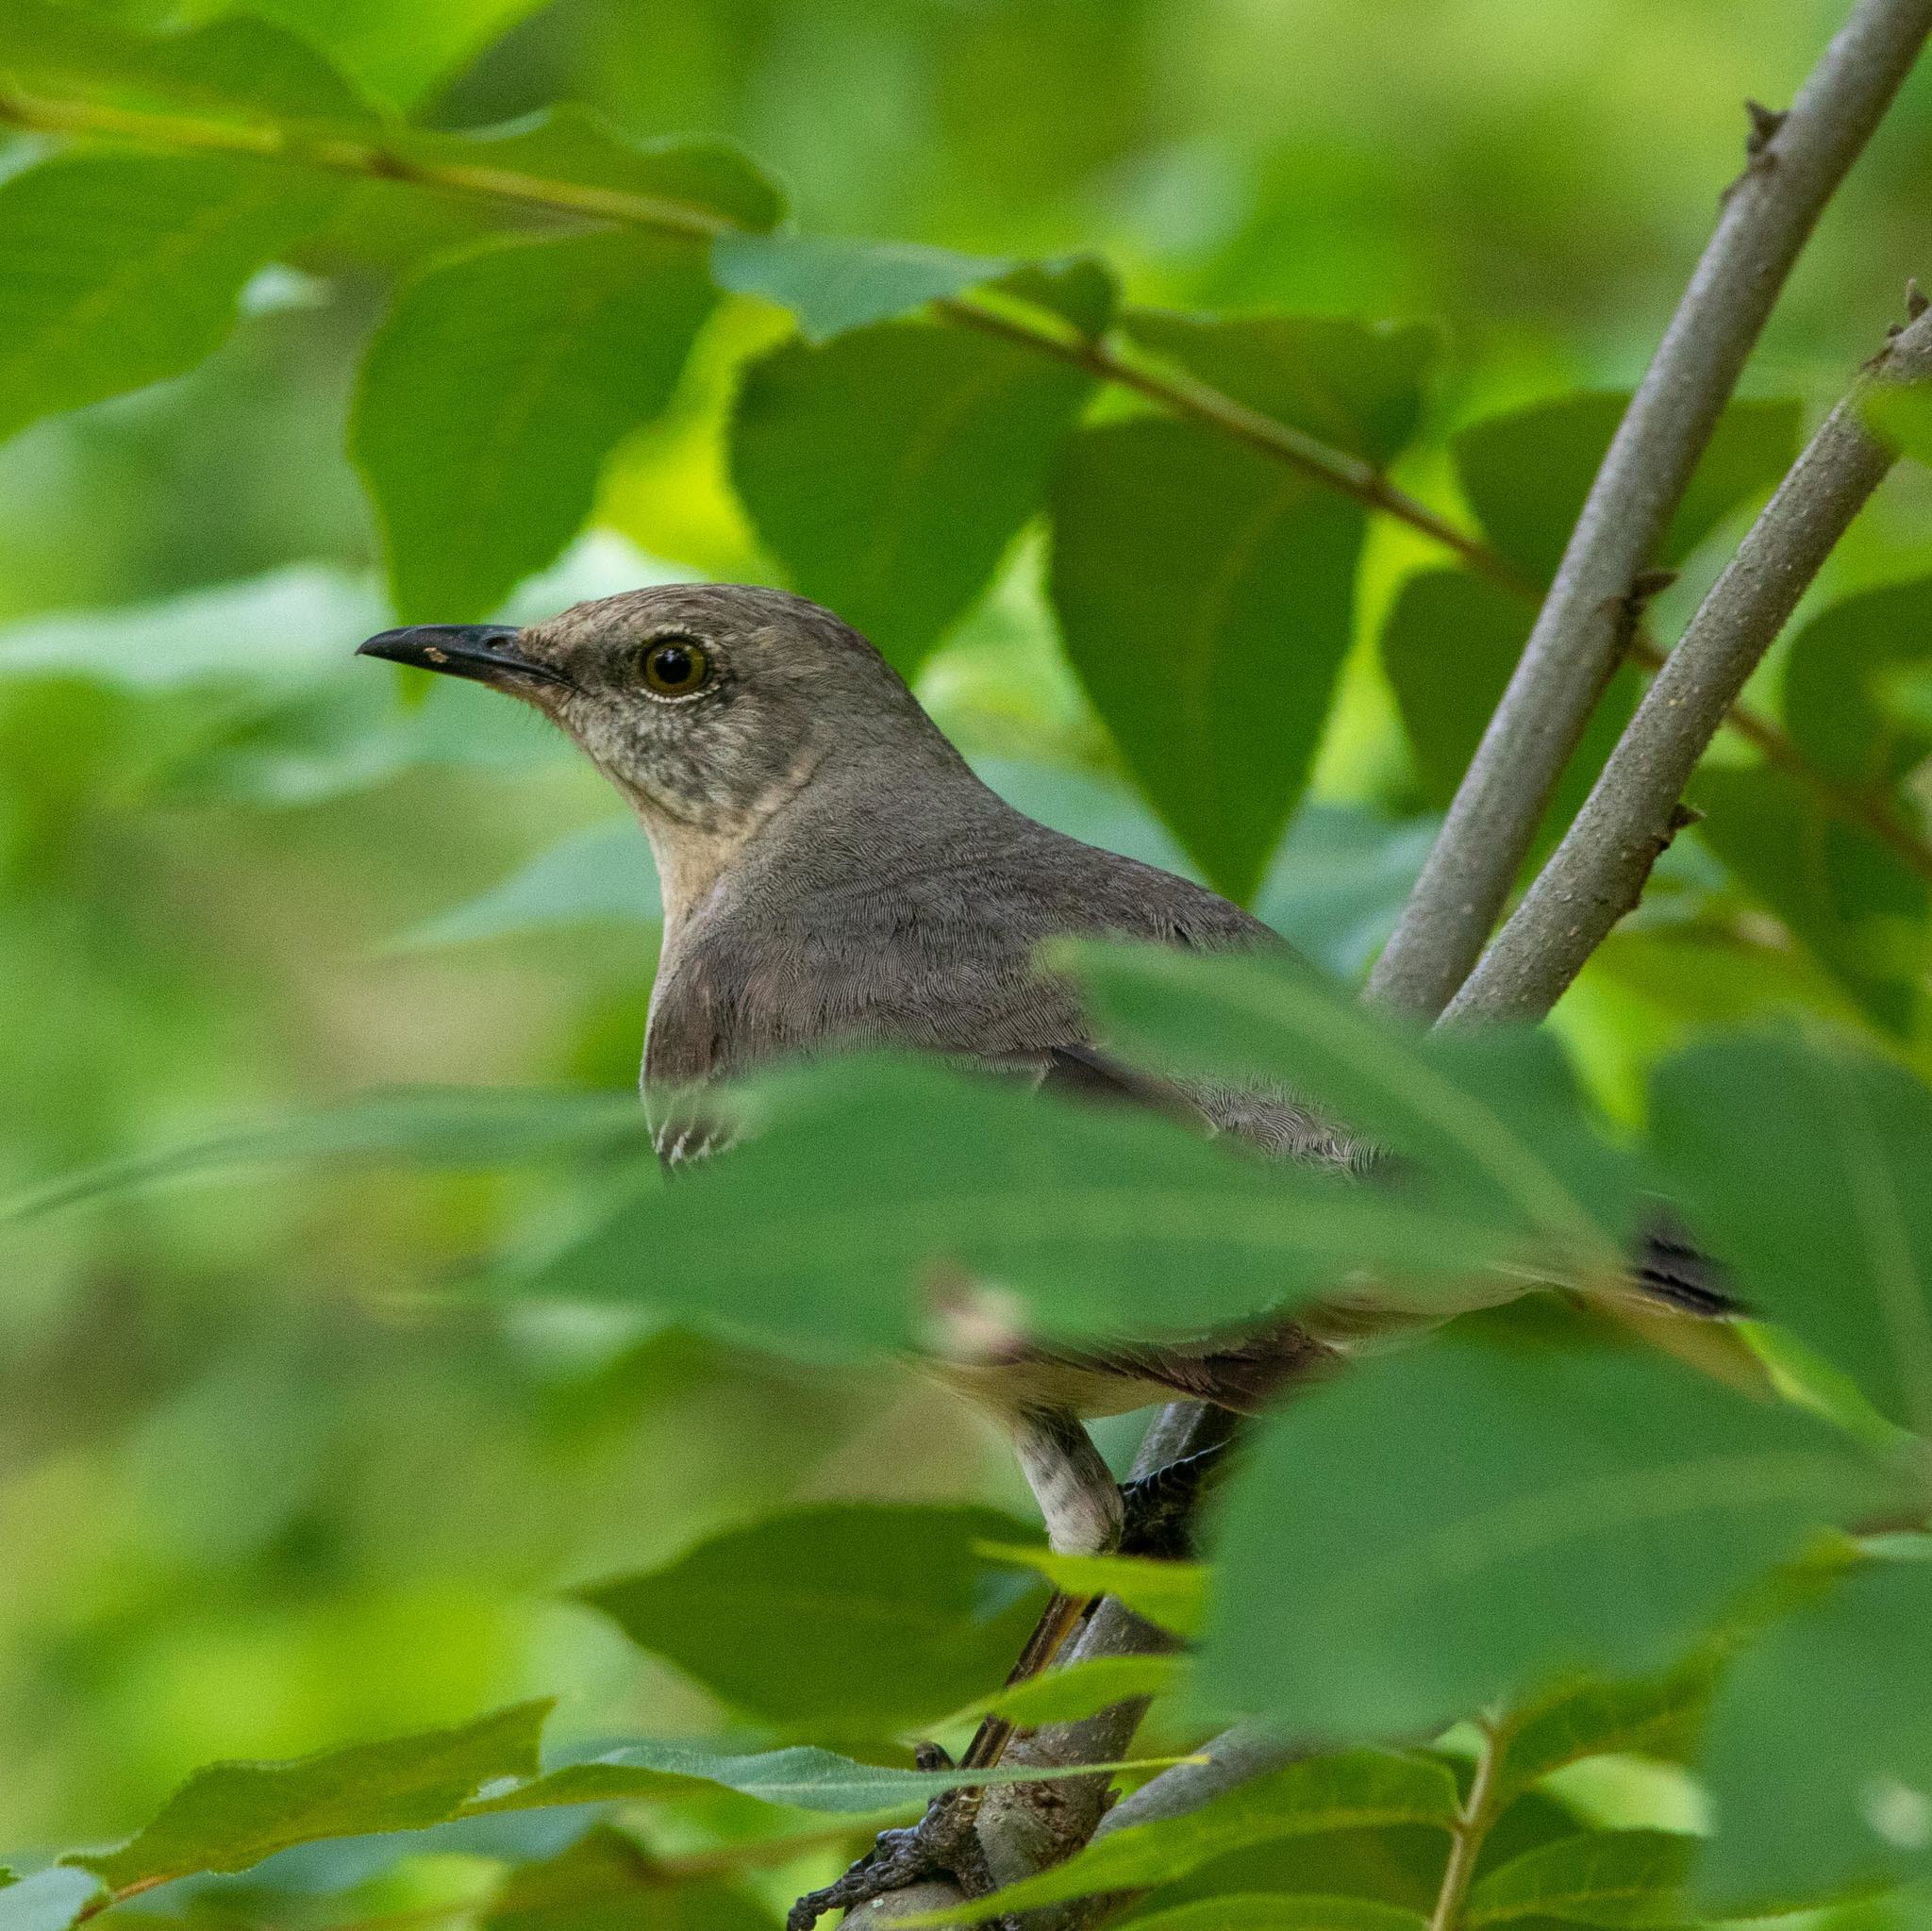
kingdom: Animalia
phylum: Chordata
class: Aves
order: Passeriformes
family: Mimidae
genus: Mimus
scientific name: Mimus polyglottos
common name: Northern mockingbird
